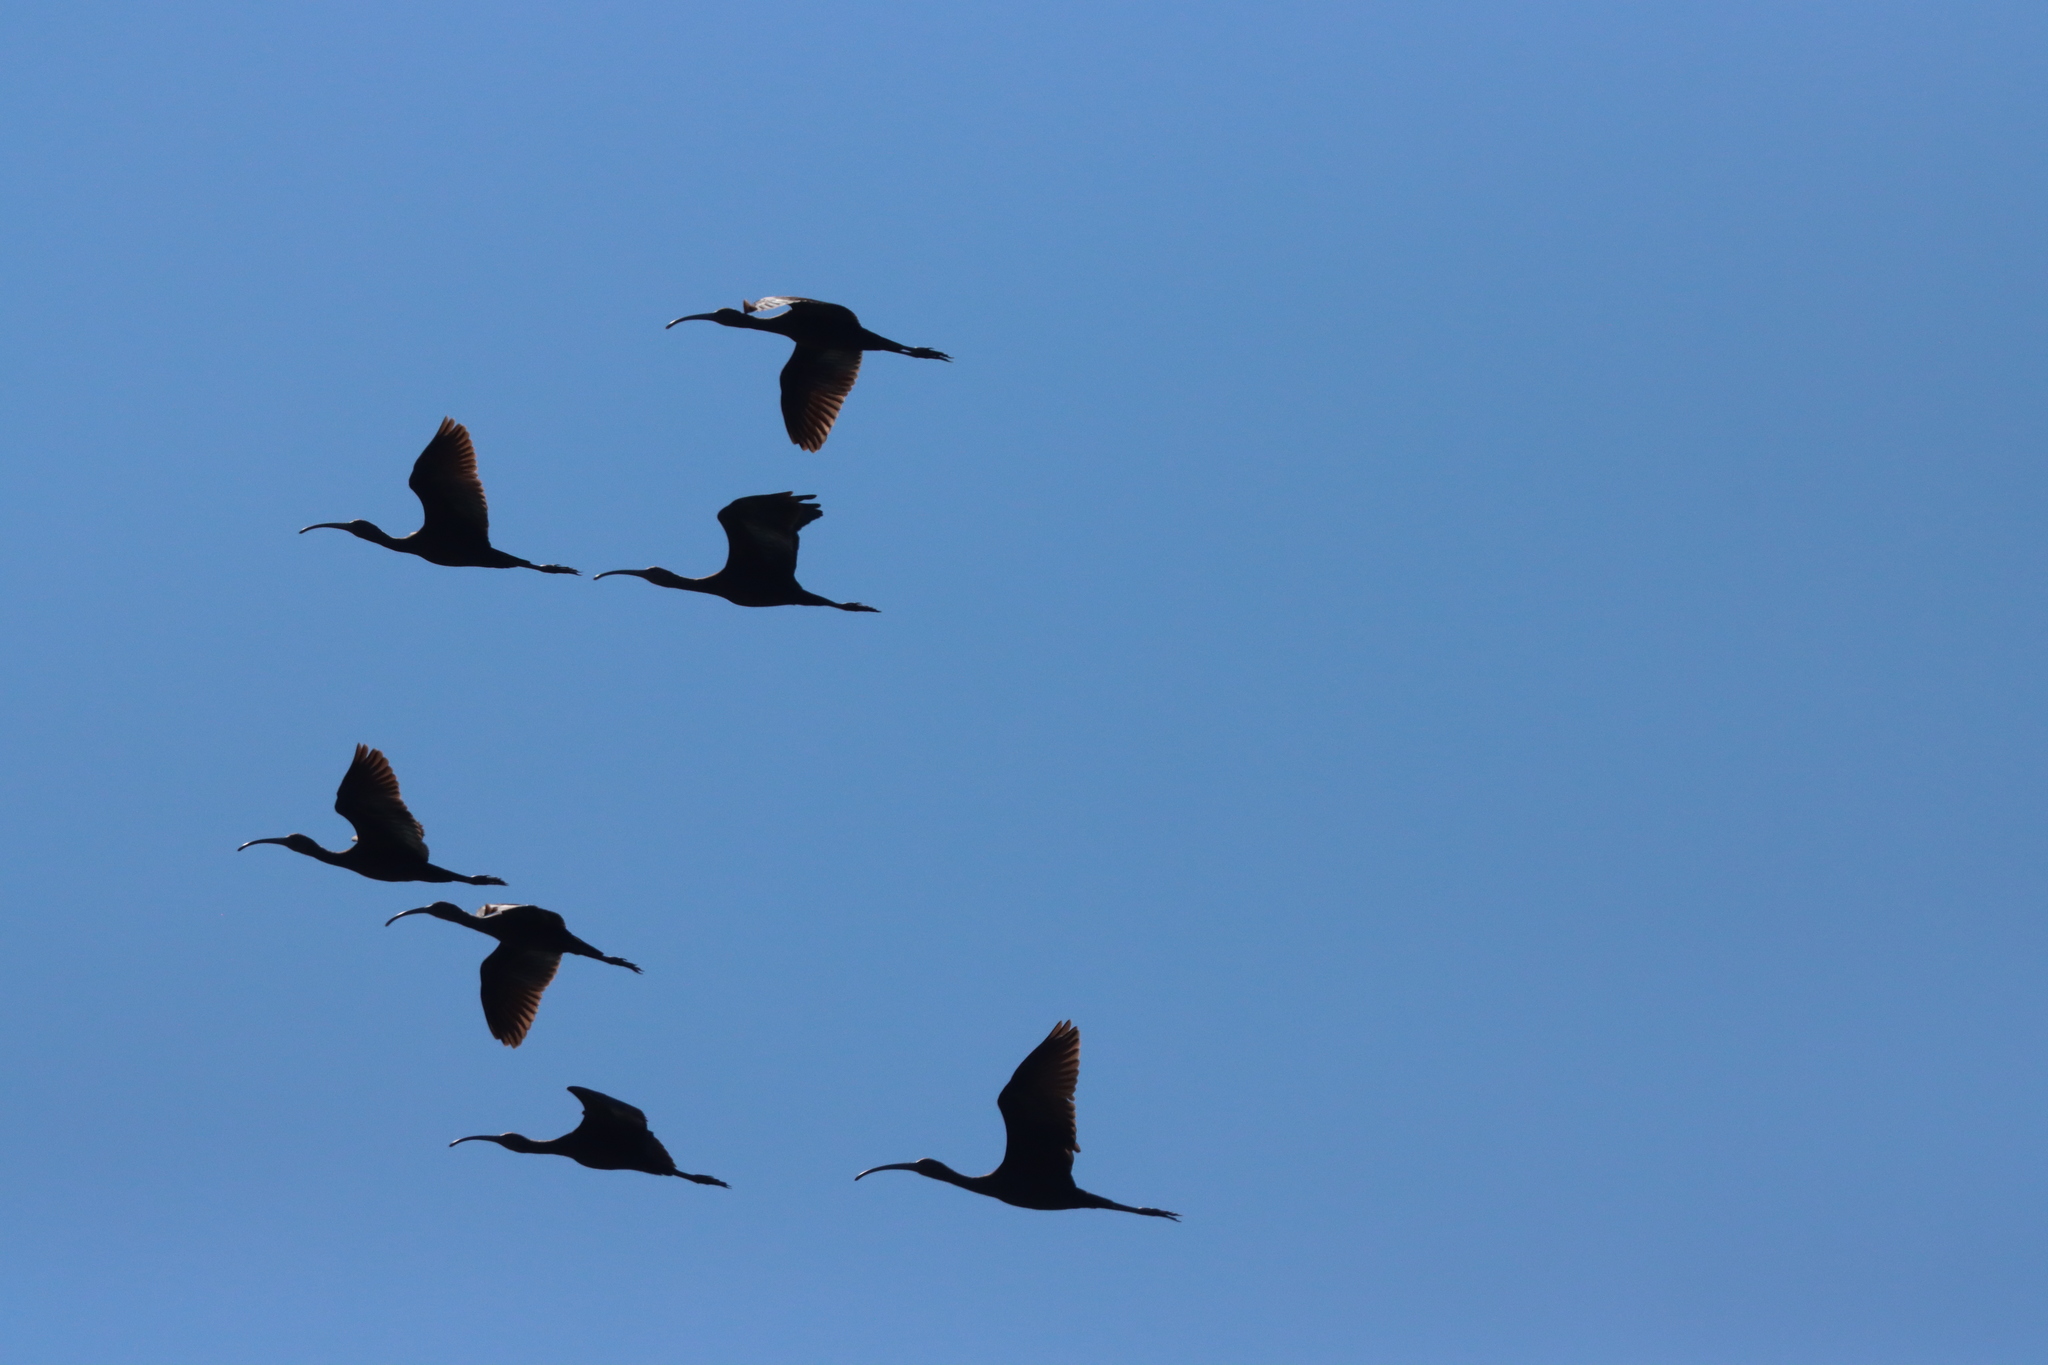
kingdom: Animalia
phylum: Chordata
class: Aves
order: Pelecaniformes
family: Threskiornithidae
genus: Plegadis
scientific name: Plegadis
